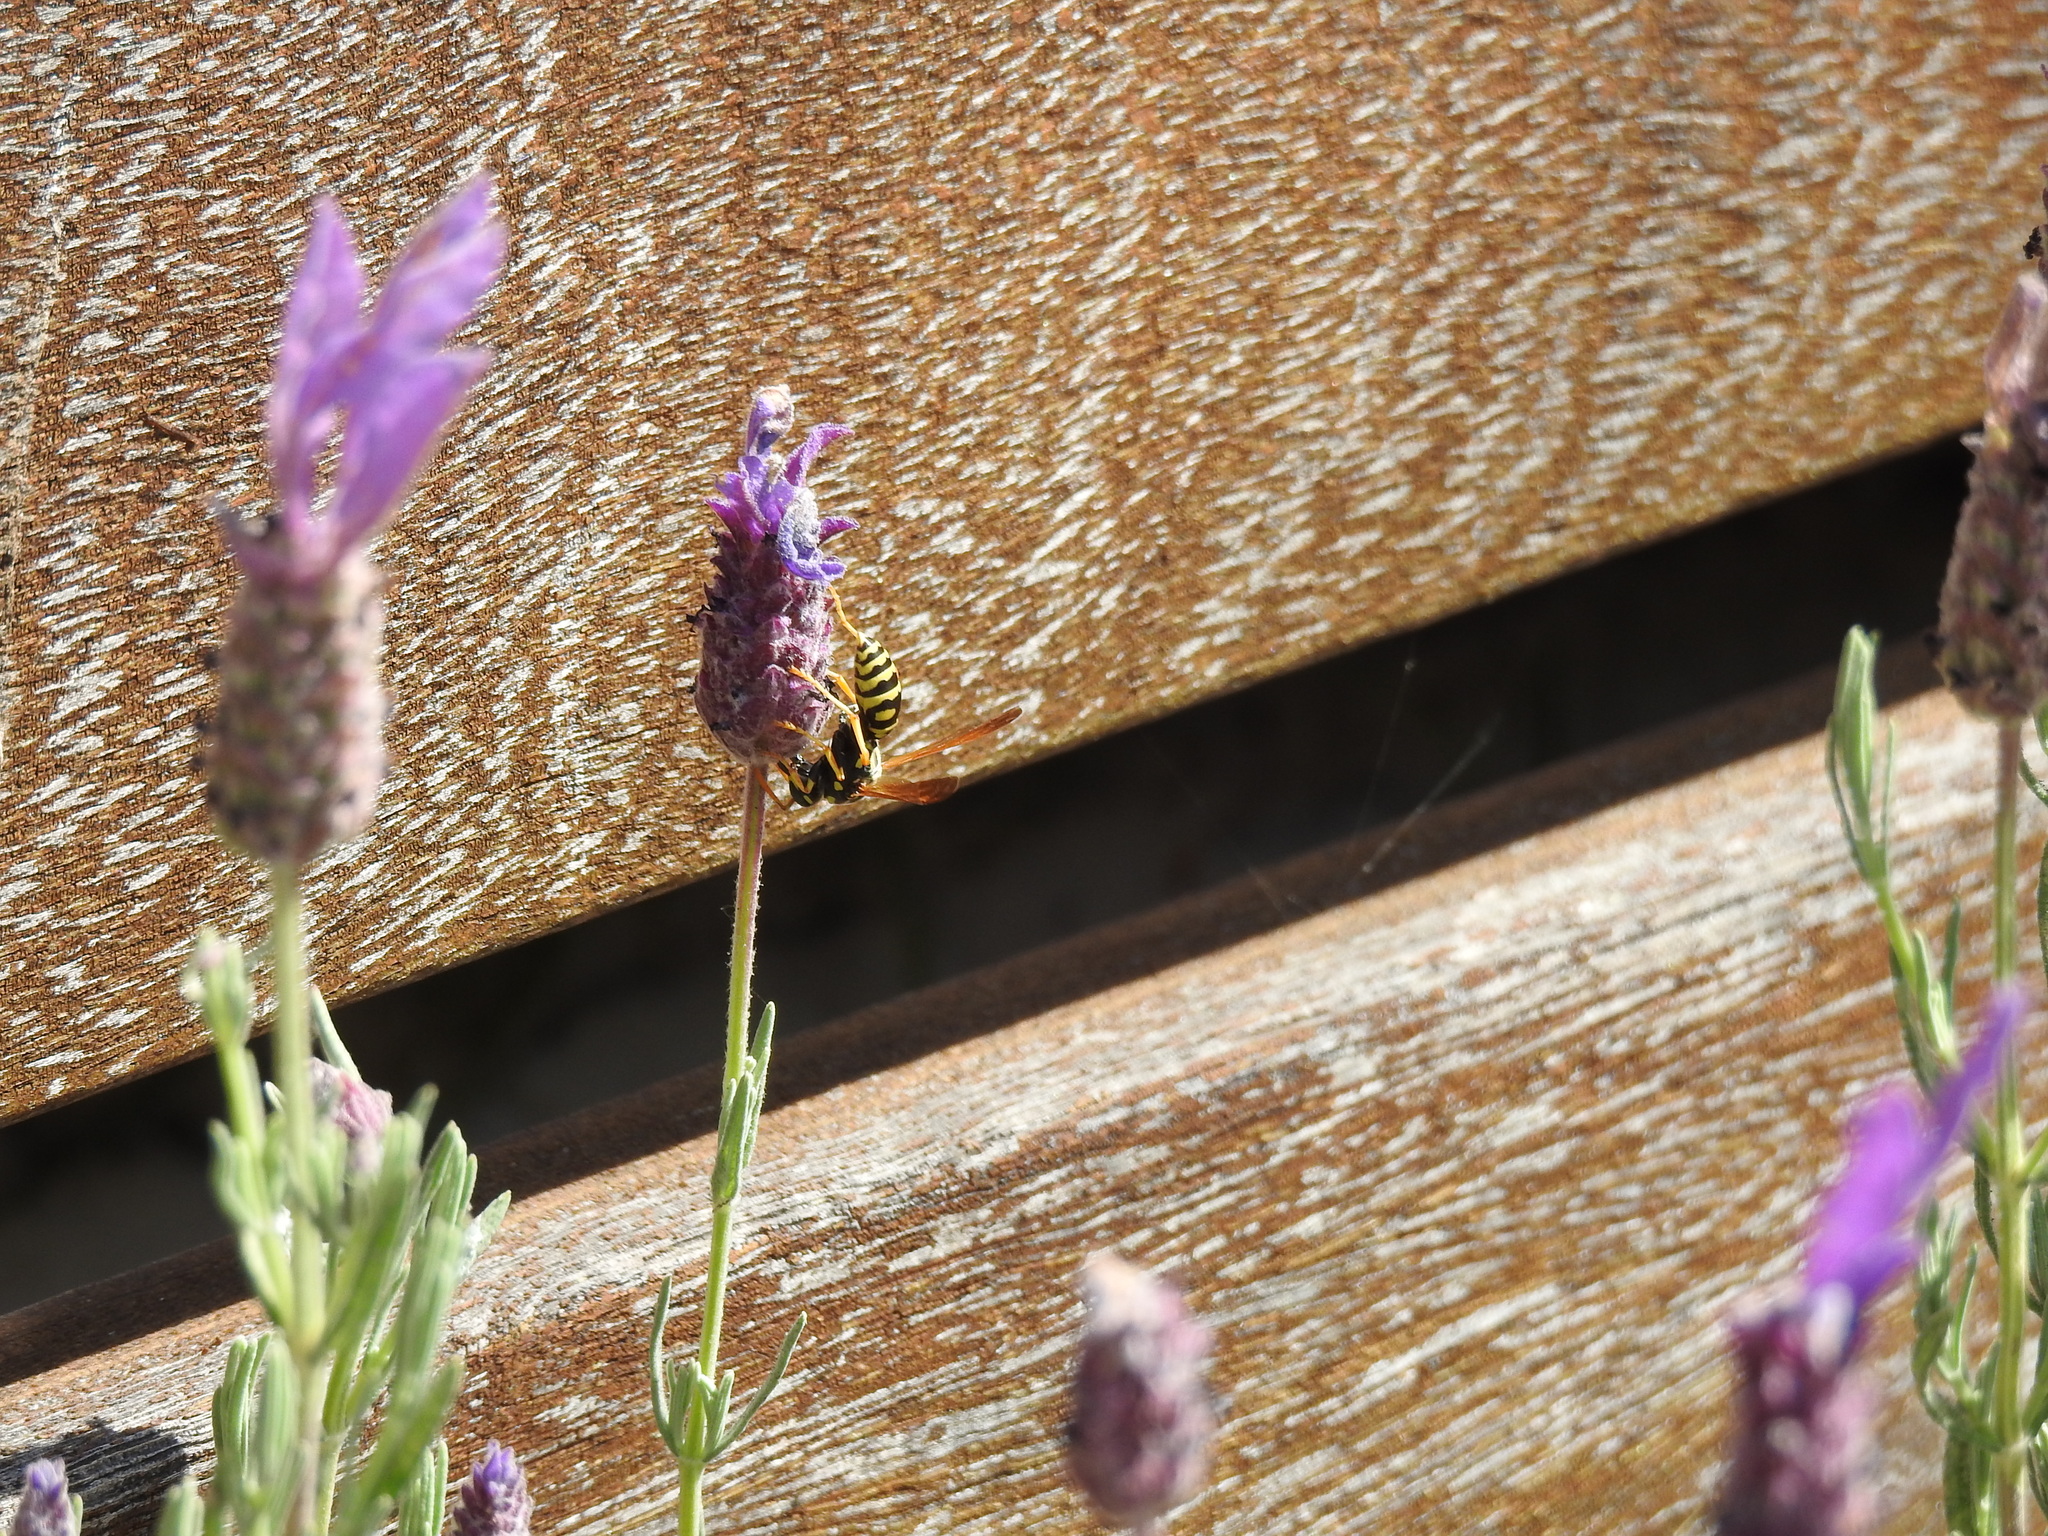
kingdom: Animalia
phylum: Arthropoda
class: Insecta
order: Hymenoptera
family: Eumenidae
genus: Polistes
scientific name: Polistes dominula
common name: Paper wasp
